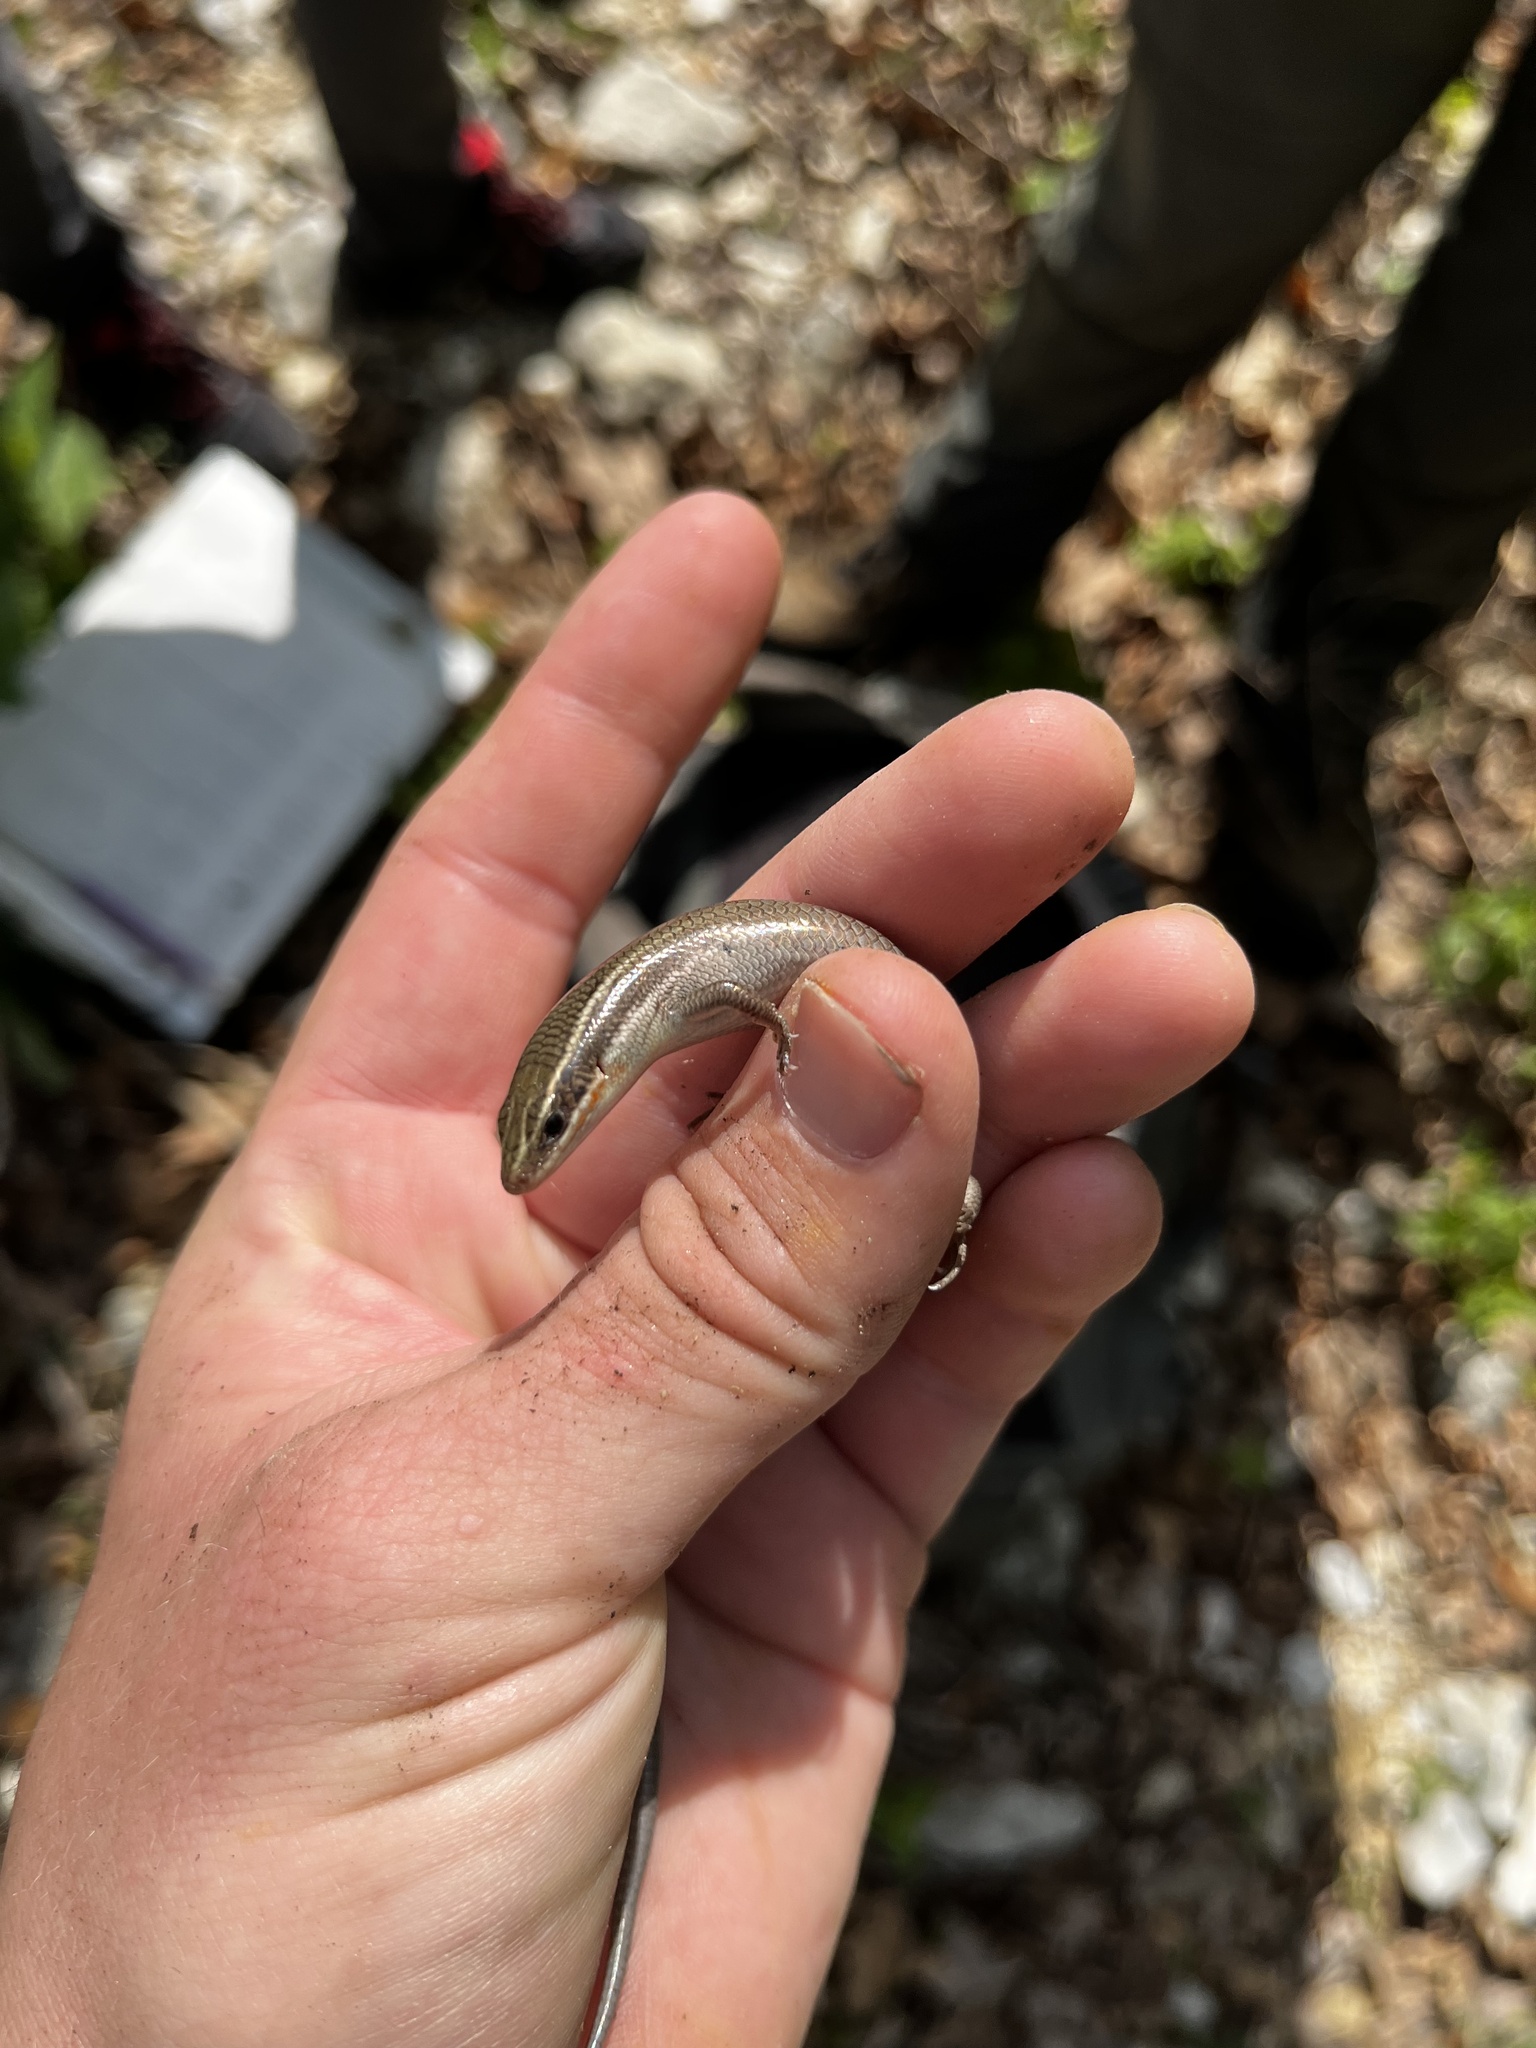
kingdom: Animalia
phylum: Chordata
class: Squamata
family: Scincidae
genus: Plestiodon
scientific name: Plestiodon tetragrammus
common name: Four-lined skink
